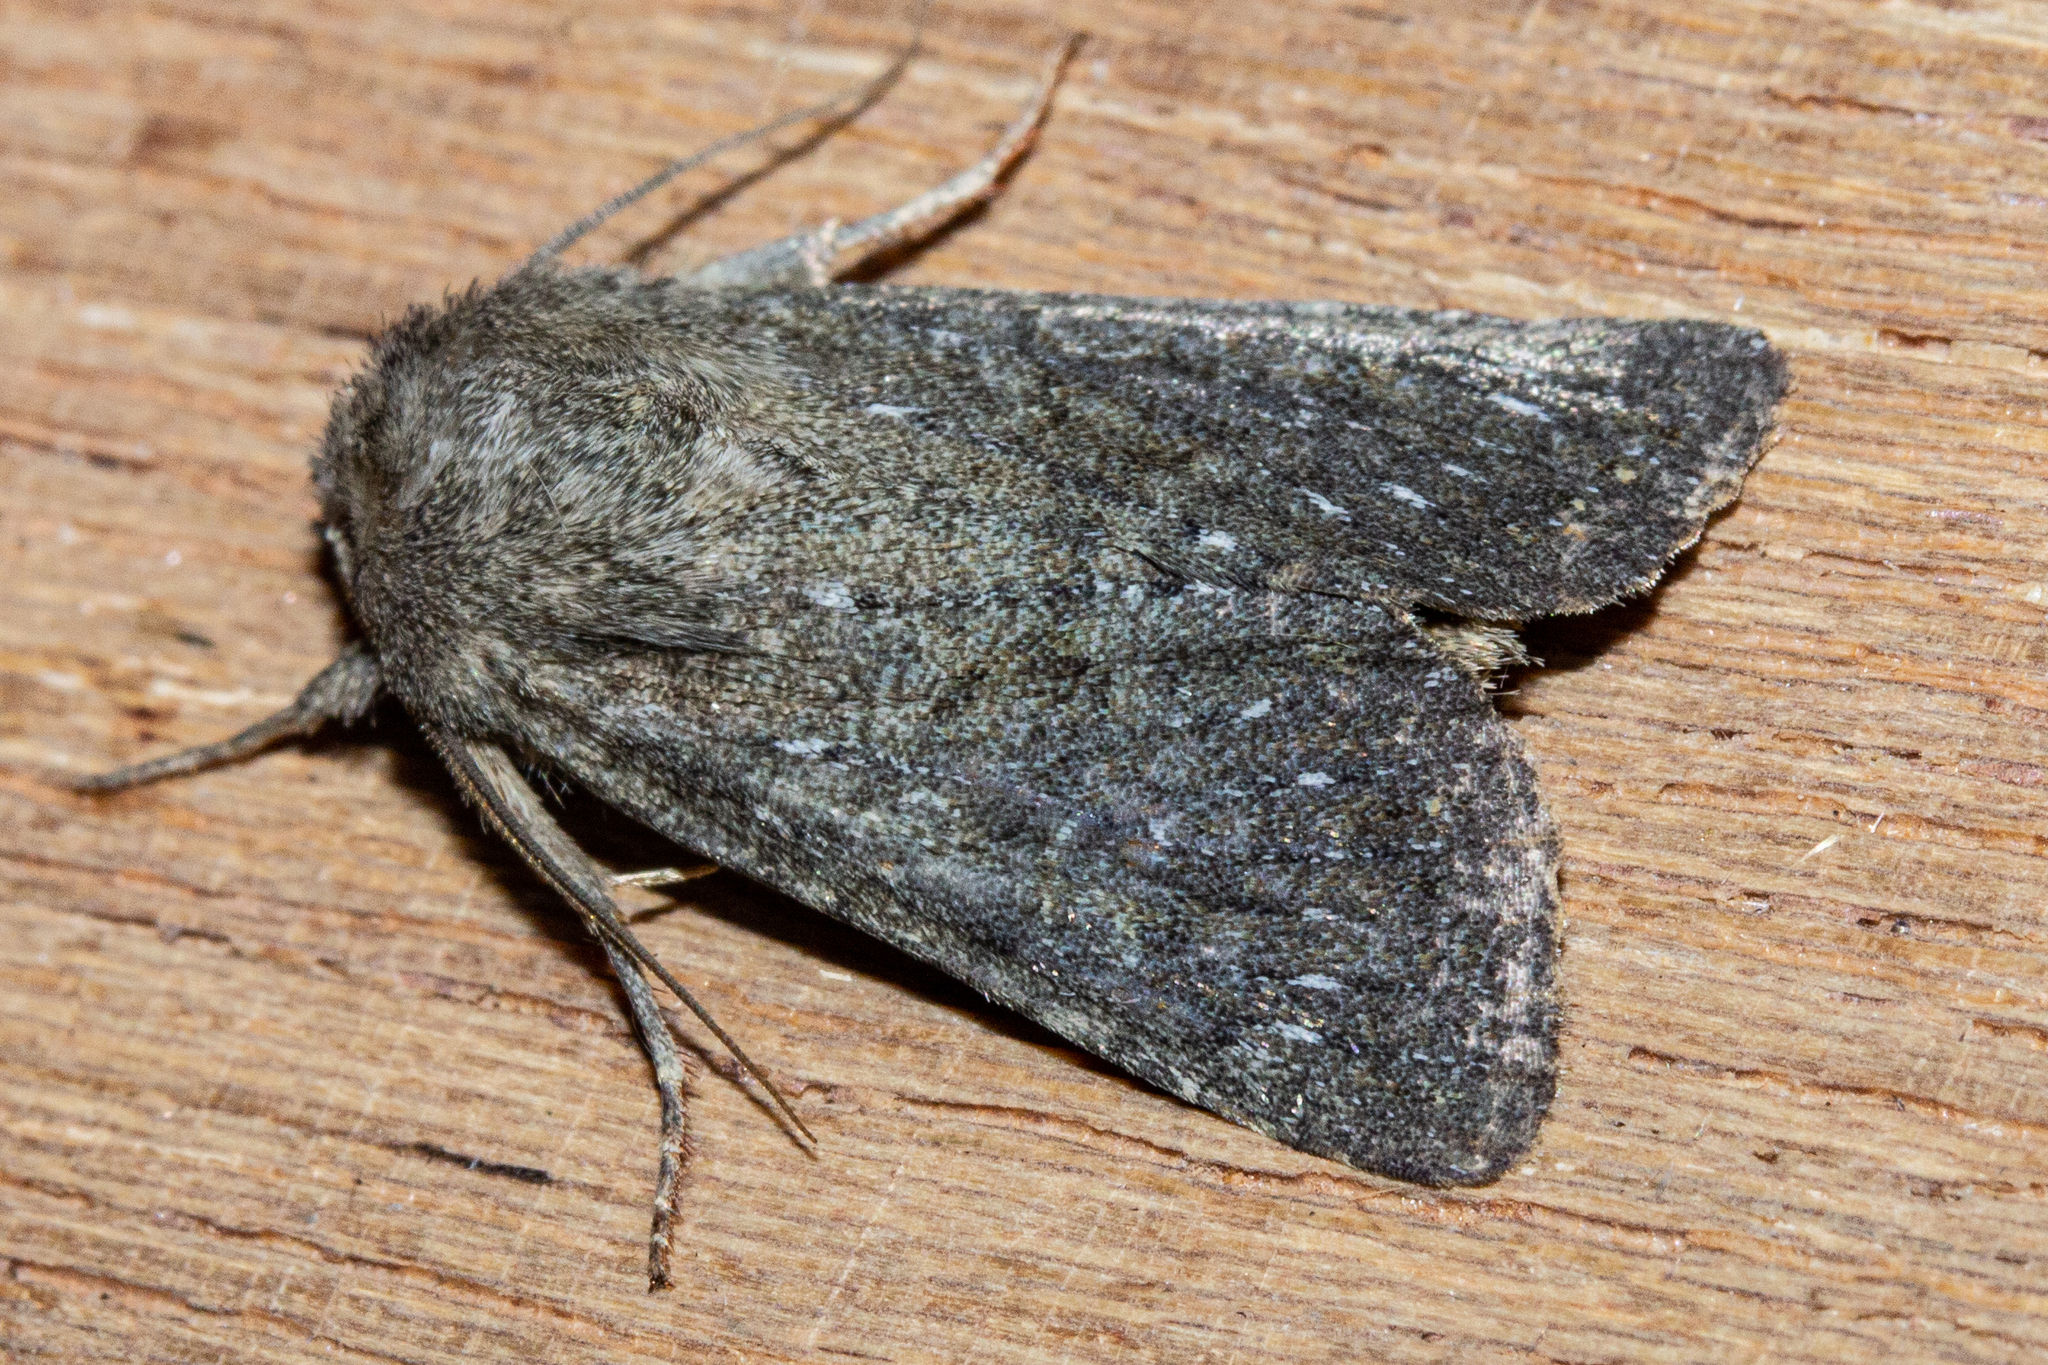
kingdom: Animalia
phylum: Arthropoda
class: Insecta
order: Lepidoptera
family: Noctuidae
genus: Ichneutica
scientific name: Ichneutica
